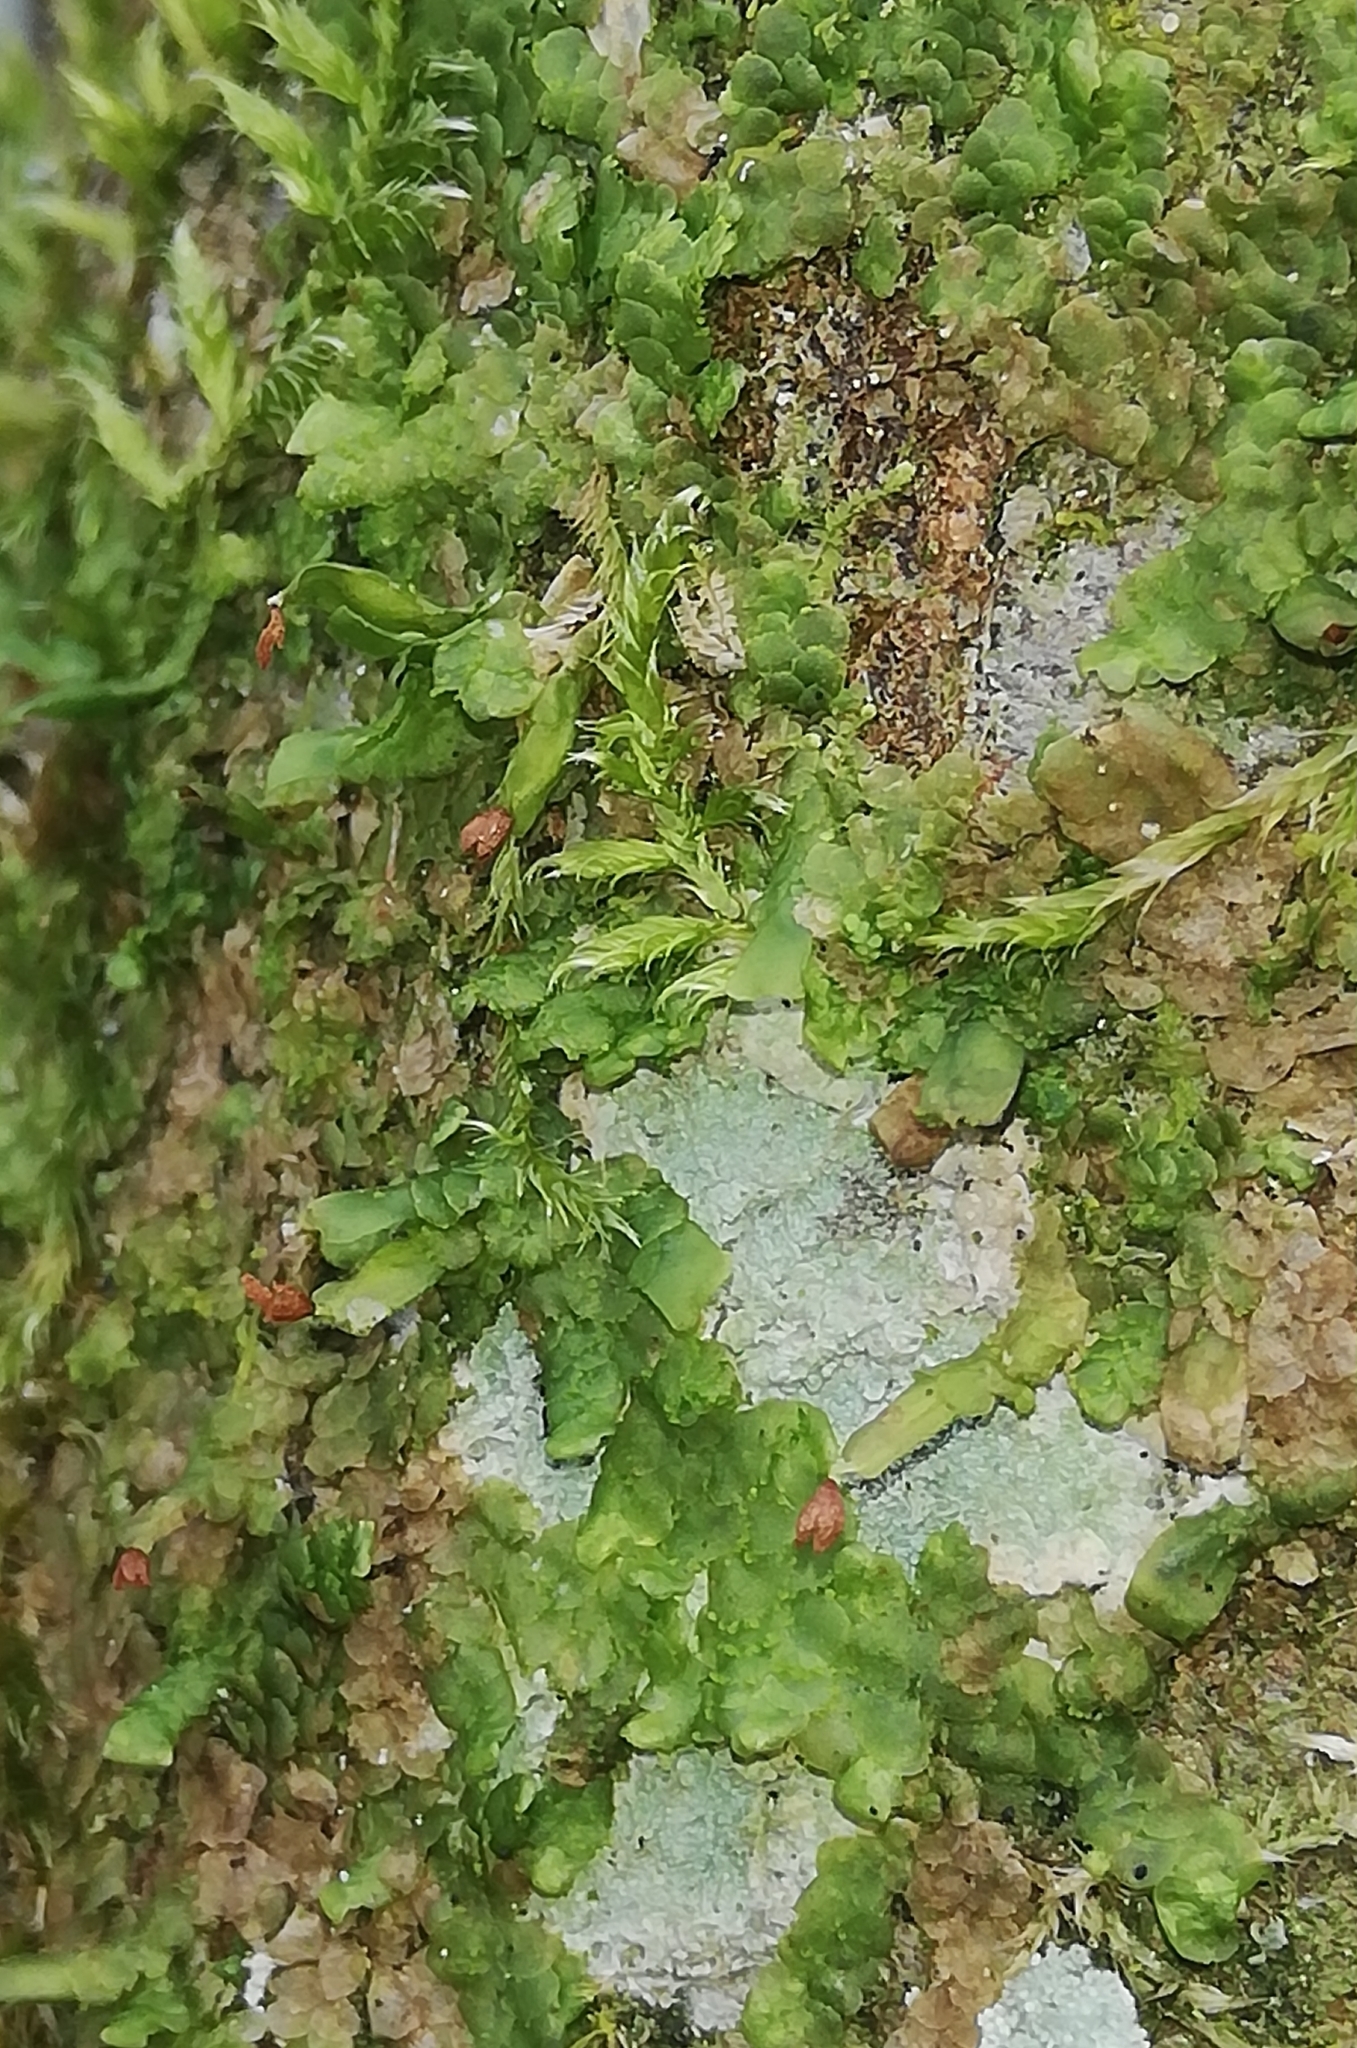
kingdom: Plantae
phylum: Marchantiophyta
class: Jungermanniopsida
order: Porellales
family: Radulaceae
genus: Radula
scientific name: Radula complanata
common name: Flat-leaved scalewort
